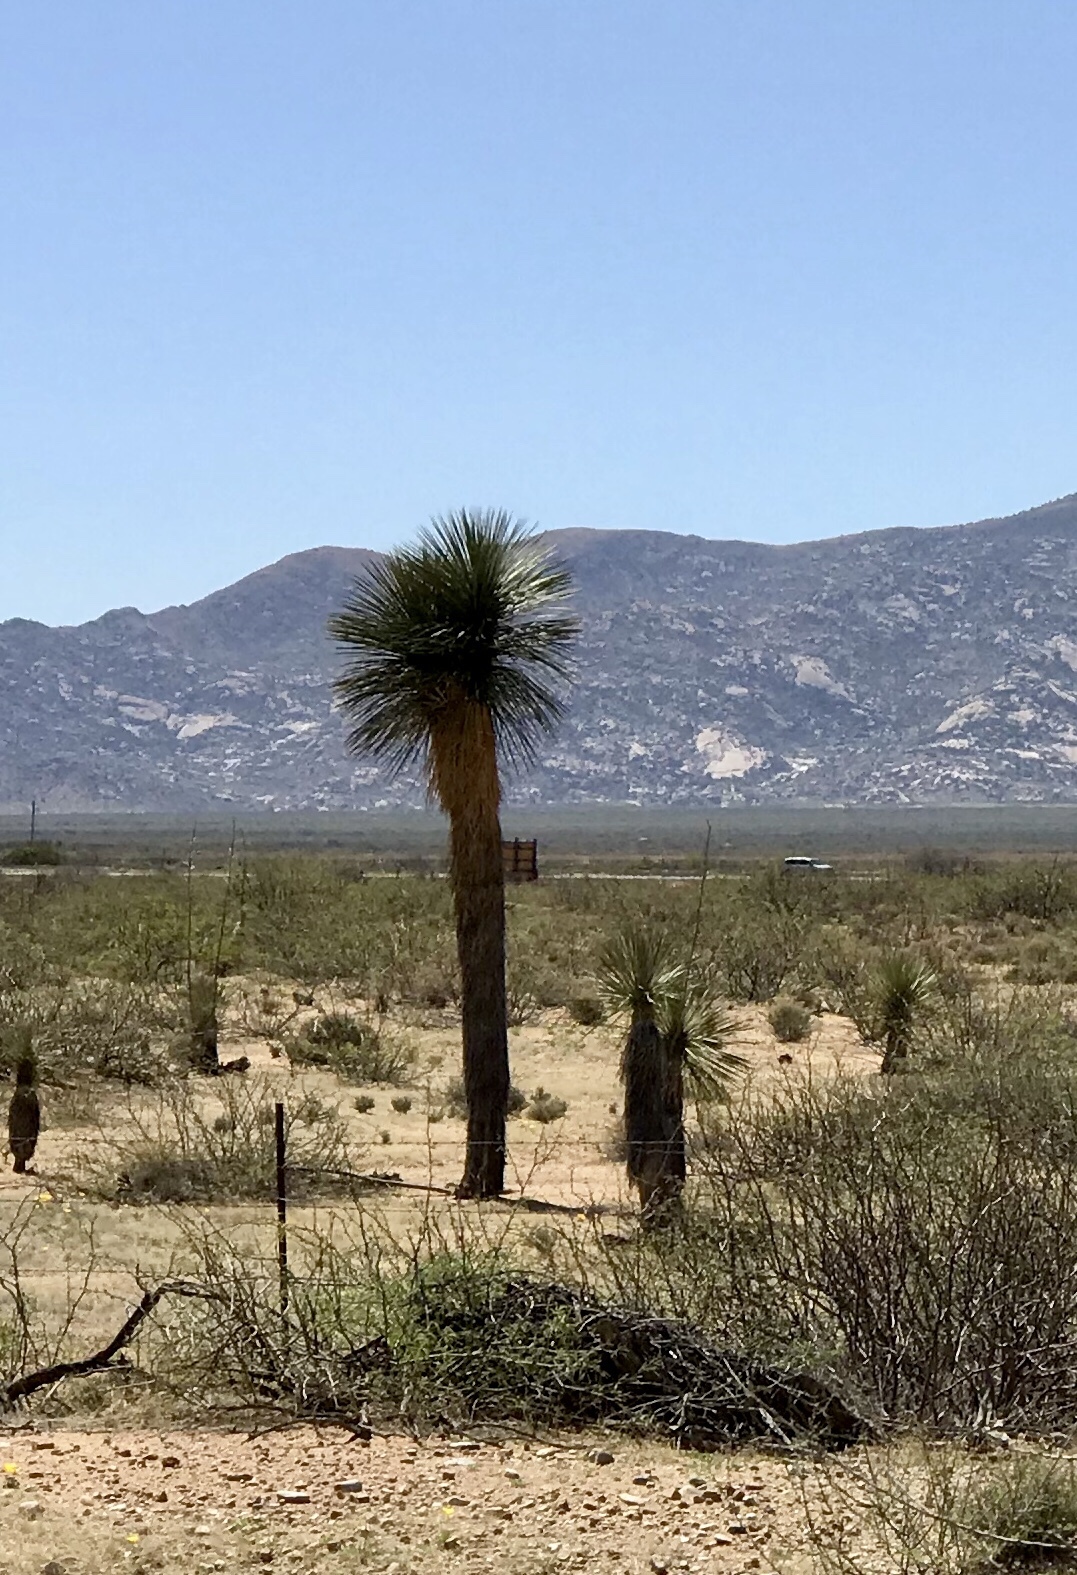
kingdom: Plantae
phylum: Tracheophyta
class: Liliopsida
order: Asparagales
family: Asparagaceae
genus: Yucca
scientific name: Yucca elata
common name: Palmella
